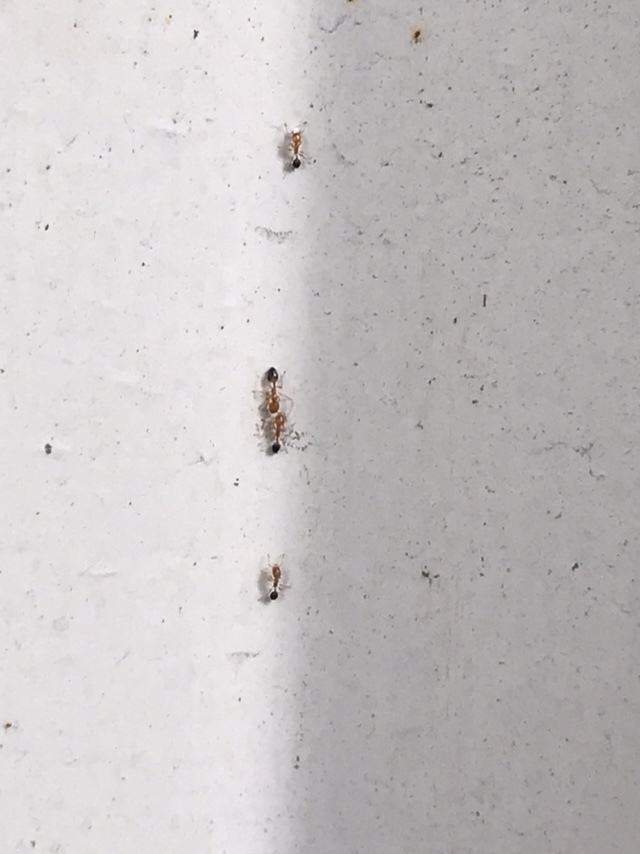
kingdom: Animalia
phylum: Arthropoda
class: Insecta
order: Hymenoptera
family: Formicidae
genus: Monomorium
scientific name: Monomorium destructor
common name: Destructive trailing ant
